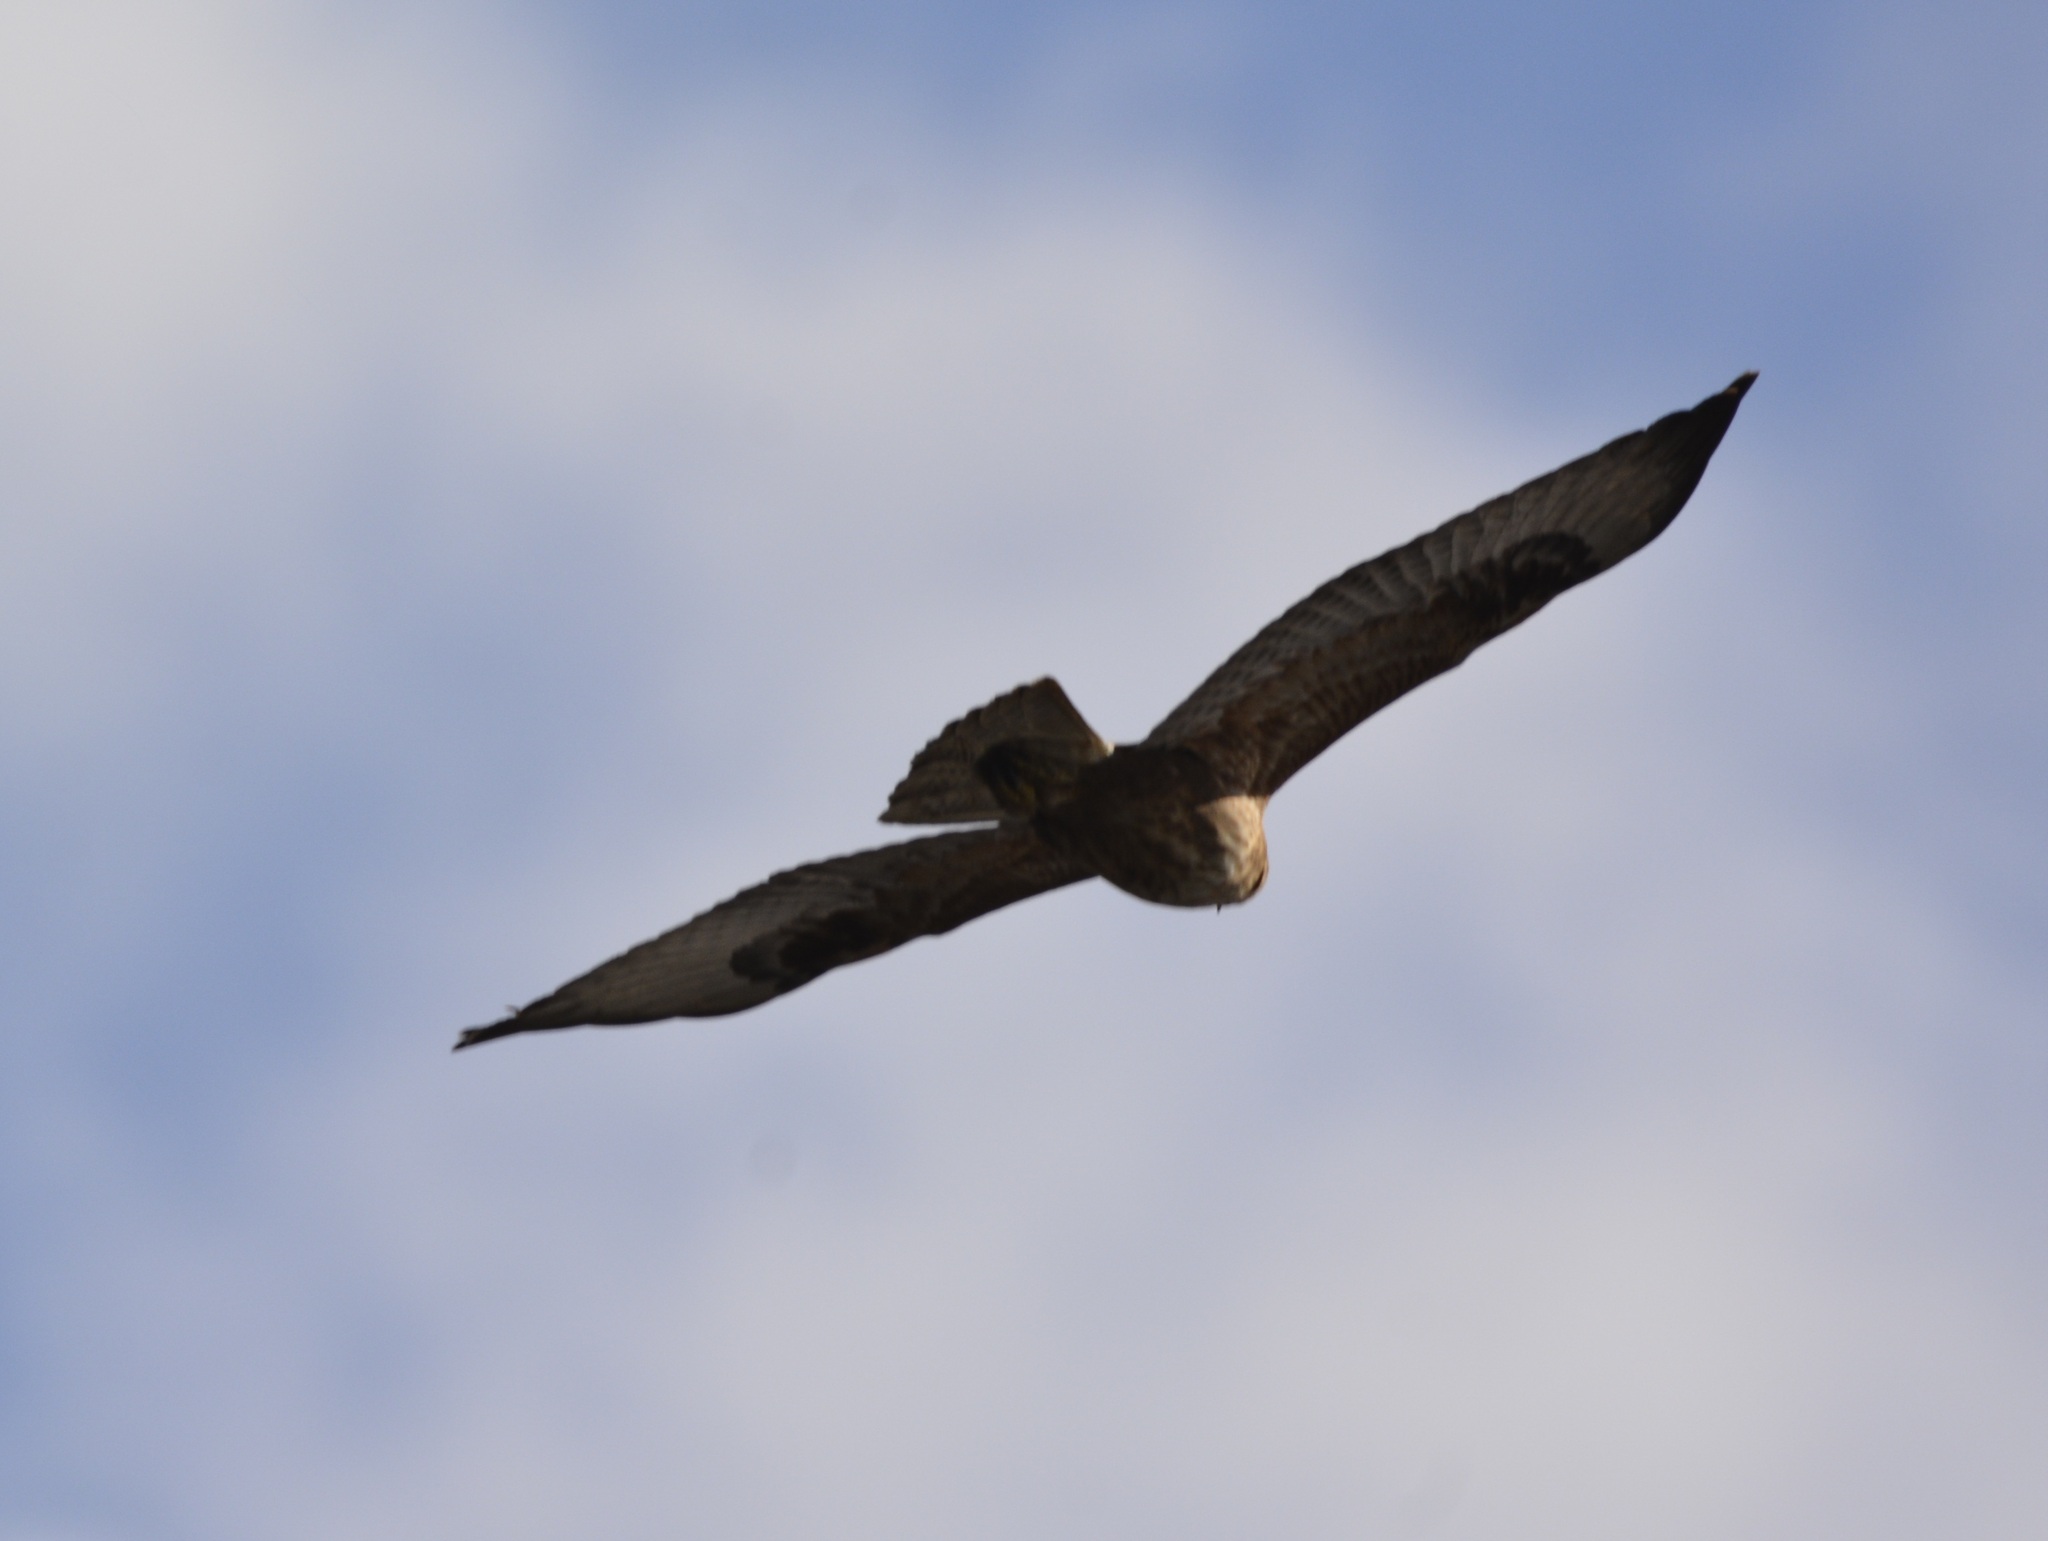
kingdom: Animalia
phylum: Chordata
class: Aves
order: Accipitriformes
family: Accipitridae
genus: Buteo
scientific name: Buteo rufinus
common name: Long-legged buzzard
